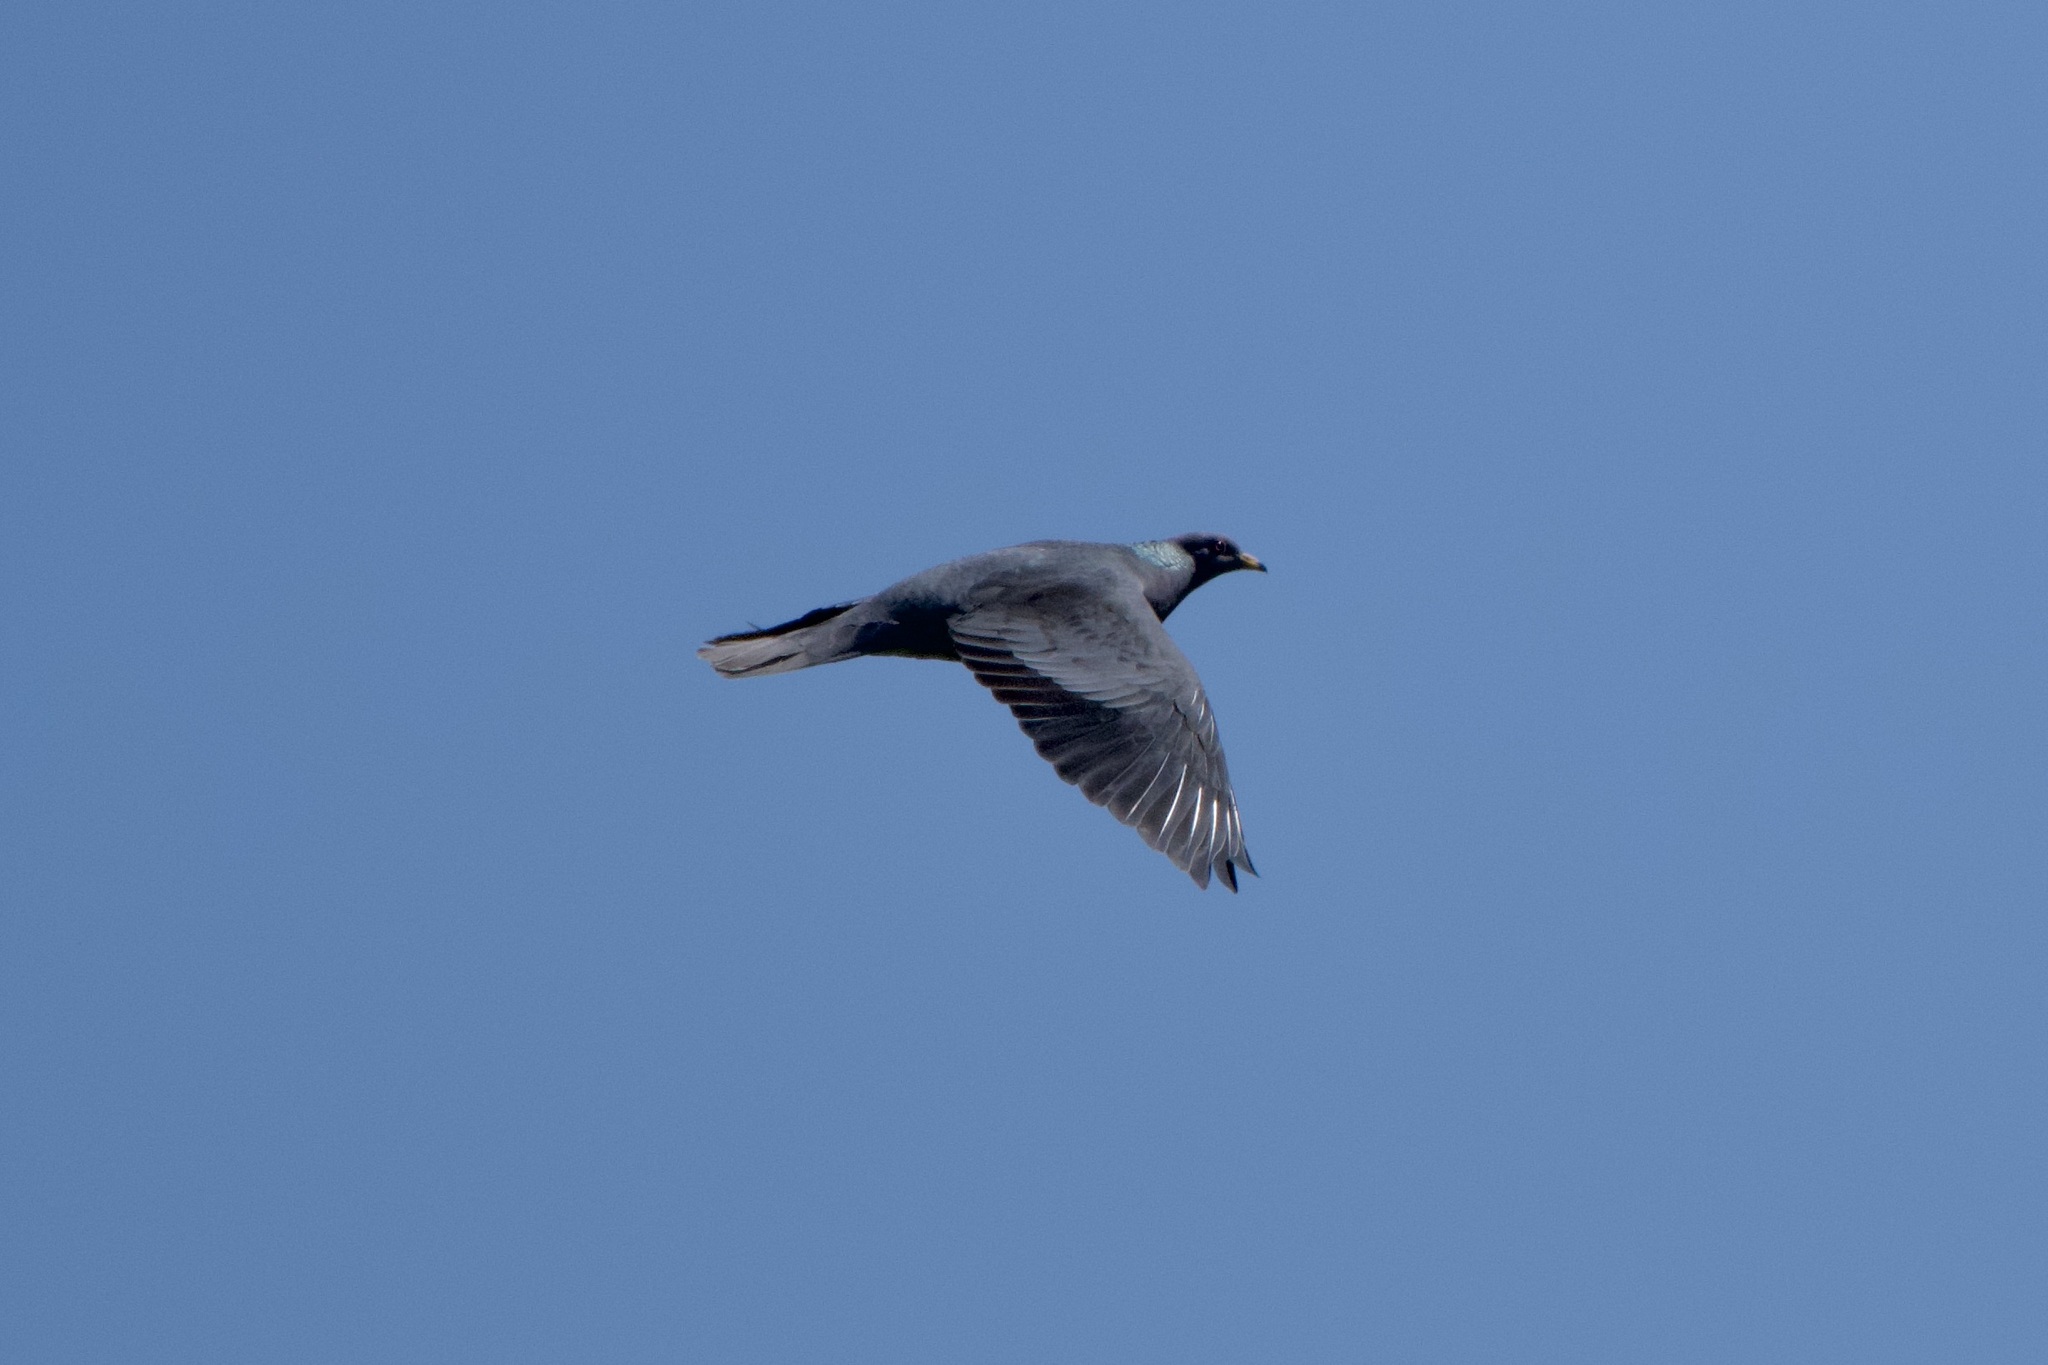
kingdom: Animalia
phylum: Chordata
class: Aves
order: Columbiformes
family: Columbidae
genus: Patagioenas
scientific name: Patagioenas fasciata
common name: Band-tailed pigeon
